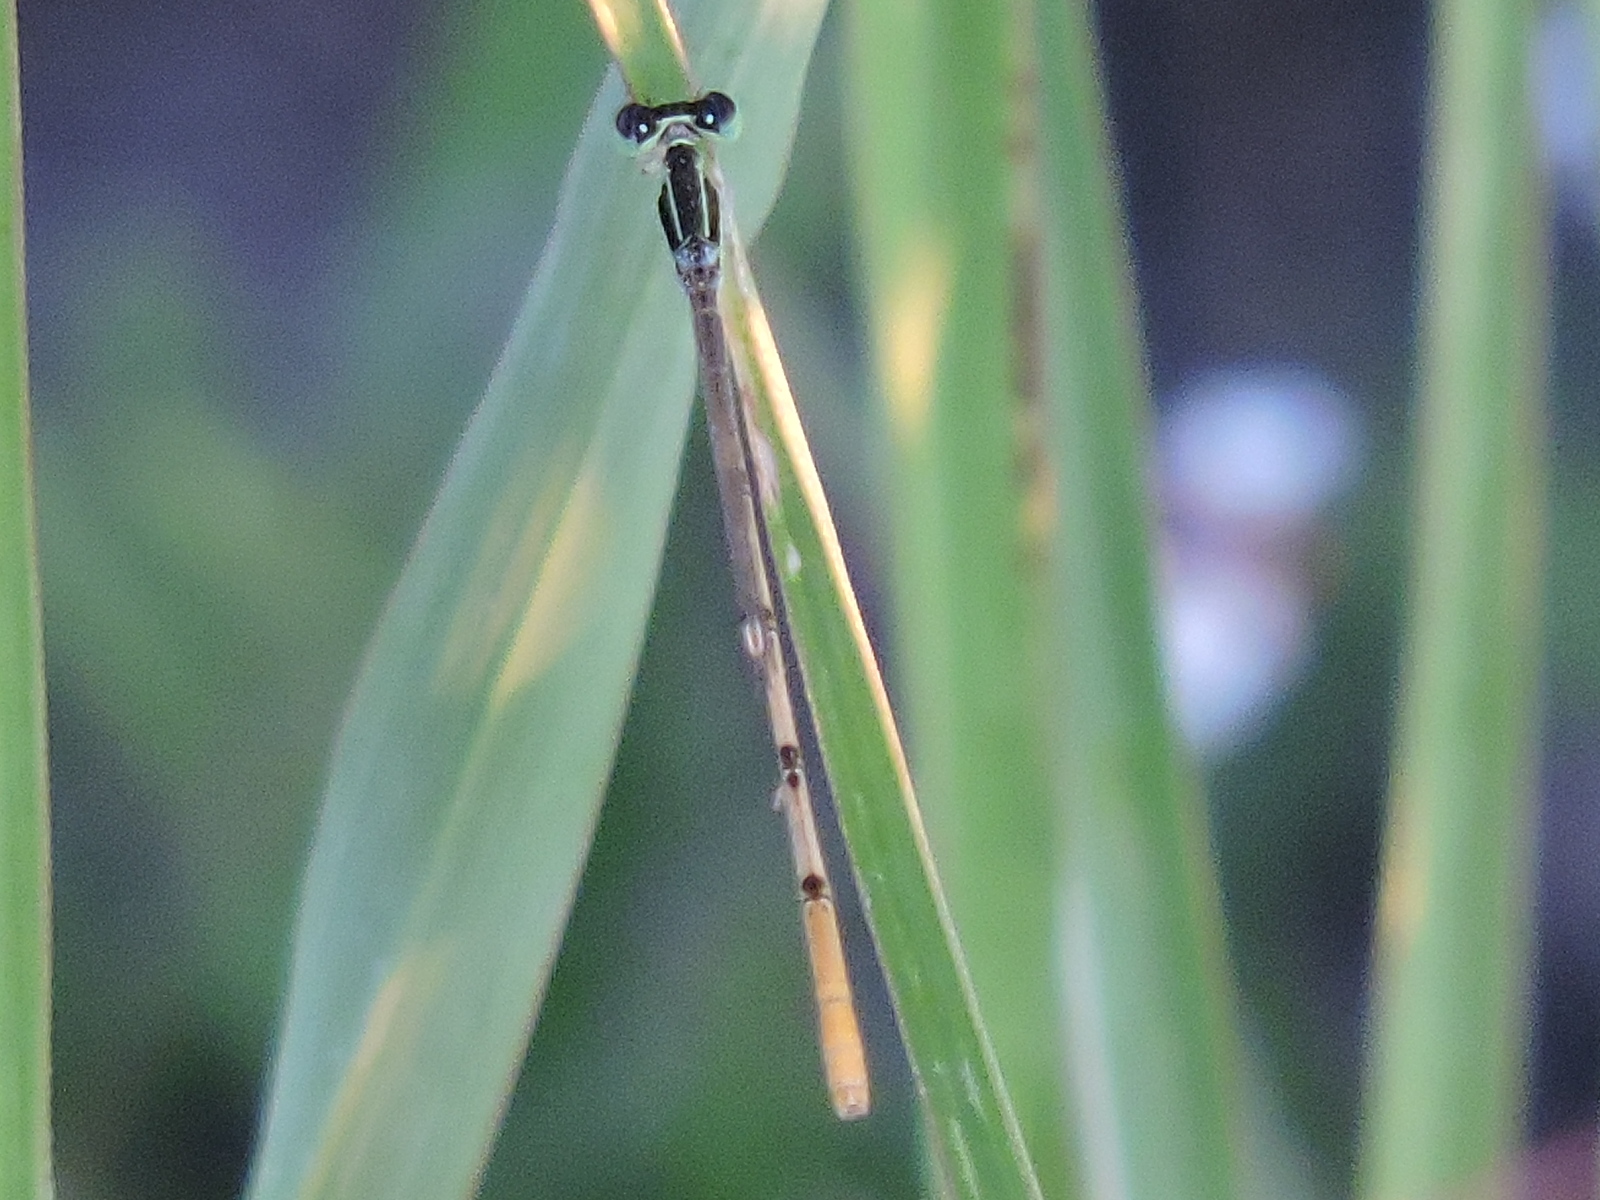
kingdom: Animalia
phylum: Arthropoda
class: Insecta
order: Odonata
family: Coenagrionidae
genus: Ischnura
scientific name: Ischnura hastata
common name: Citrine forktail
